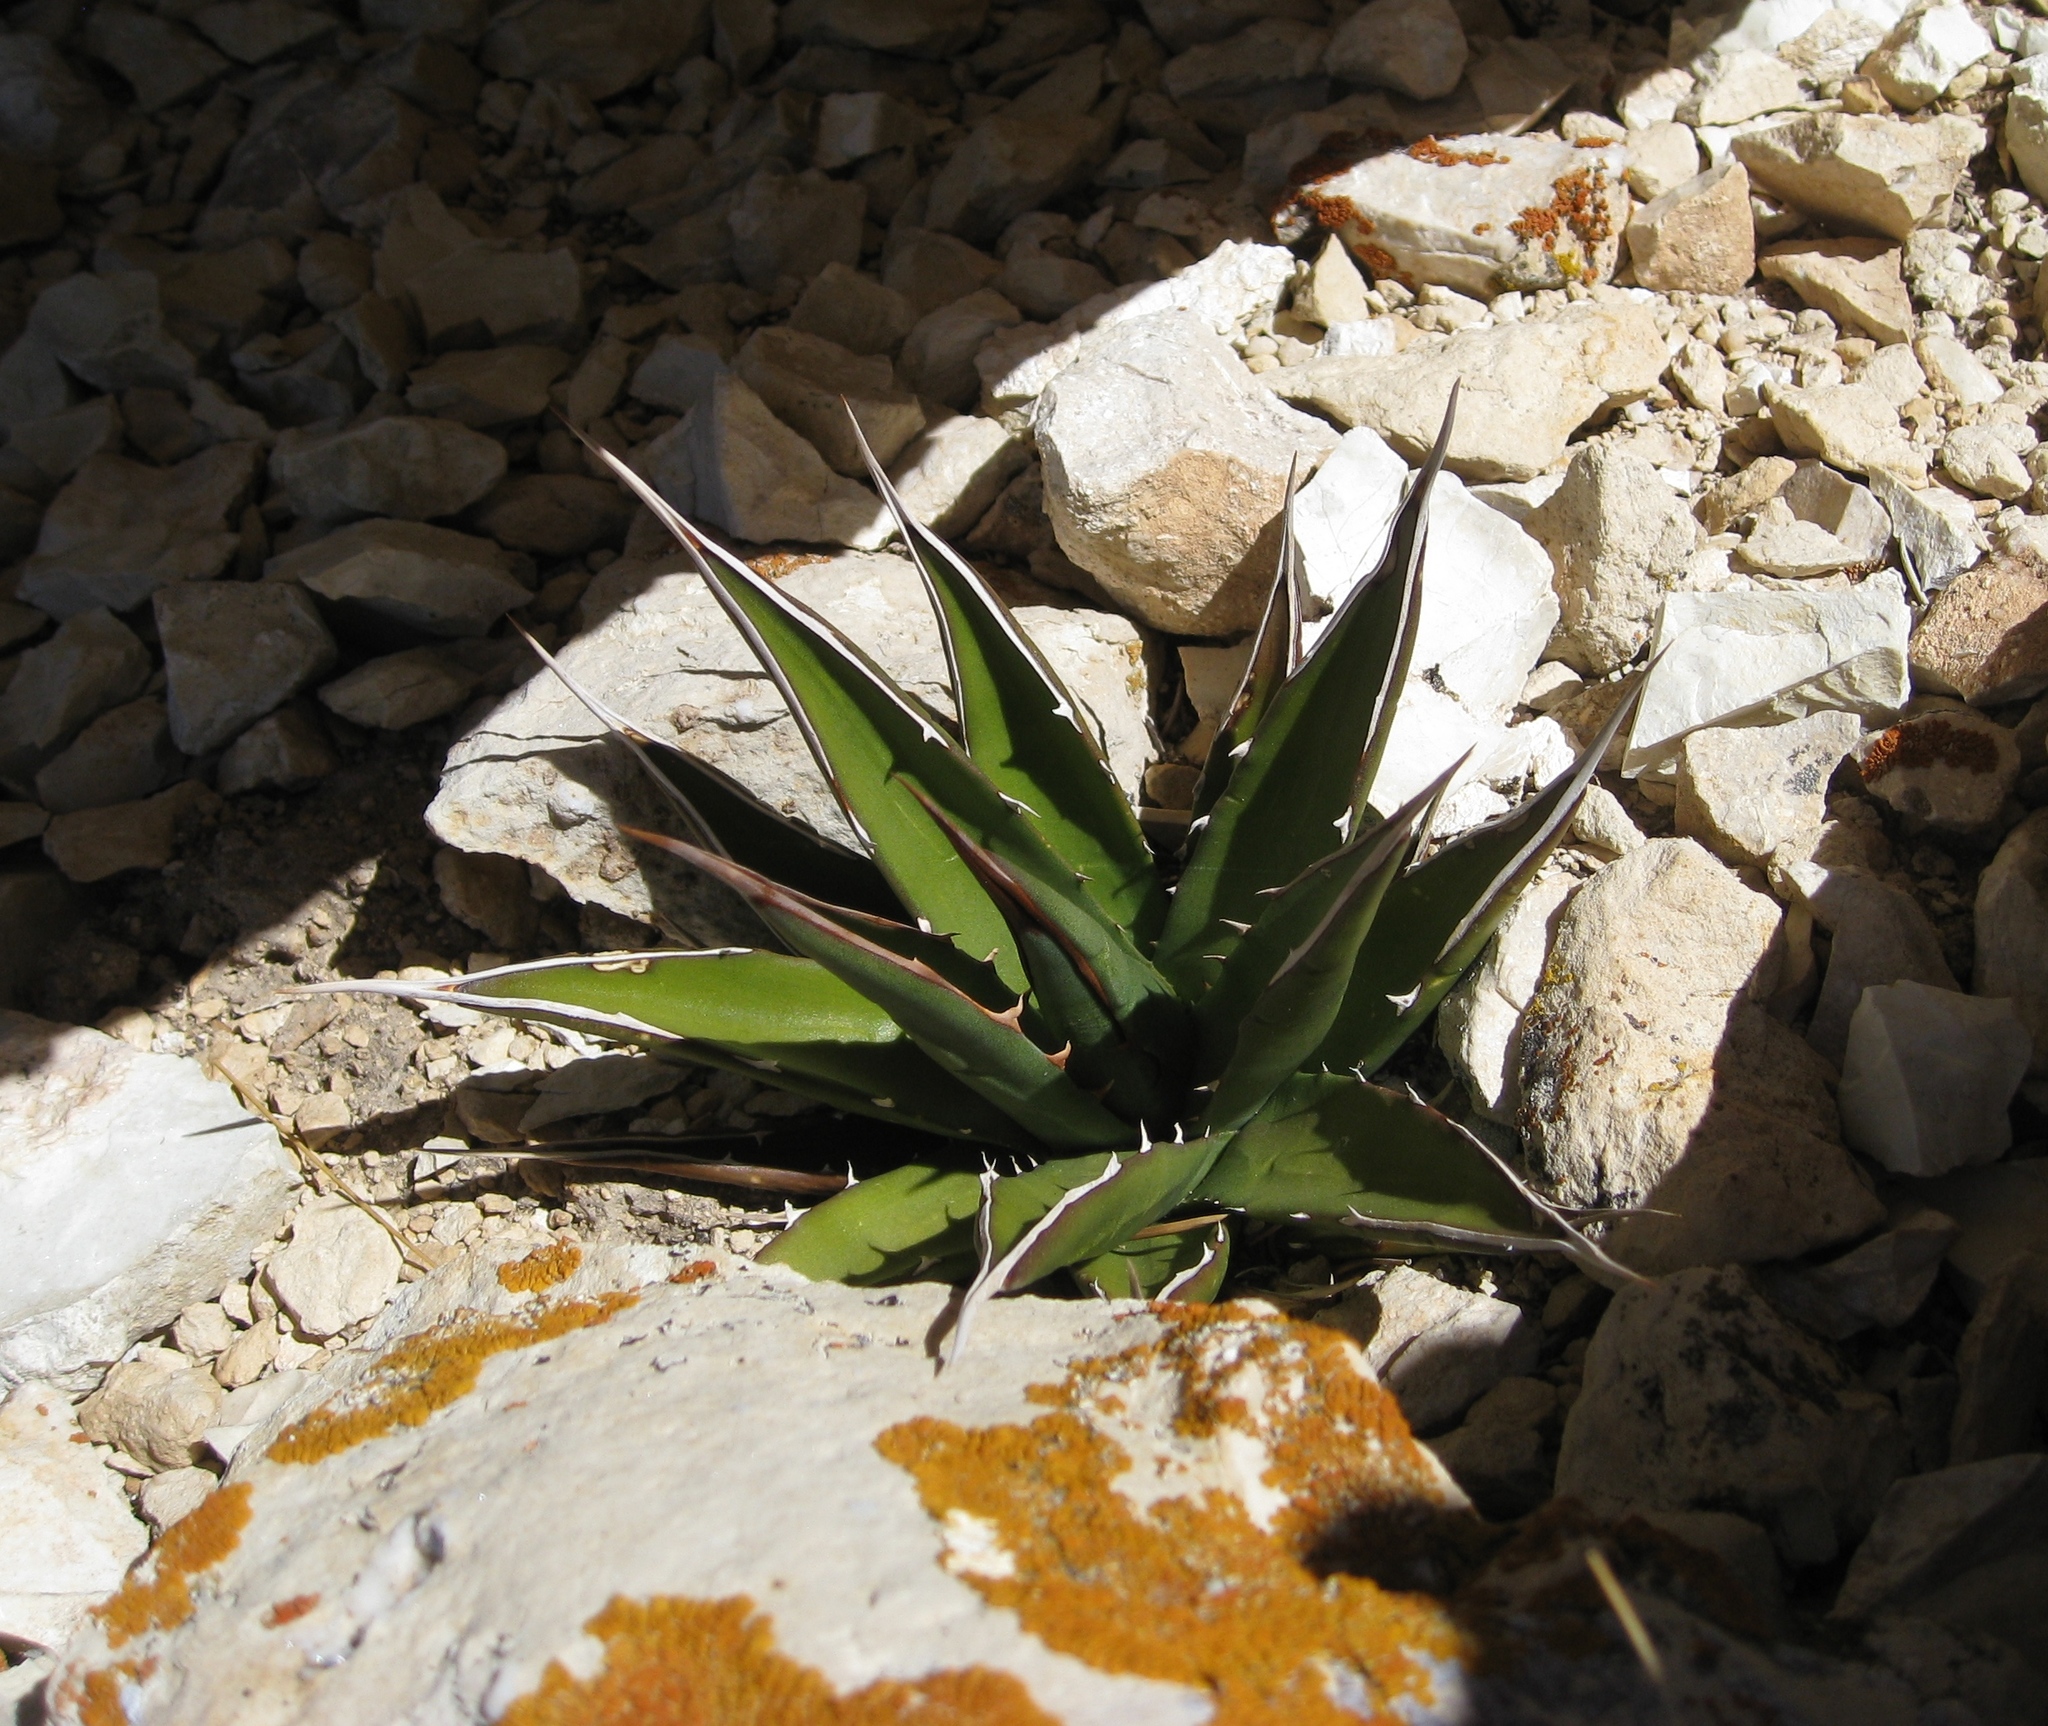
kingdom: Plantae
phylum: Tracheophyta
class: Liliopsida
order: Asparagales
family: Asparagaceae
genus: Agave
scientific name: Agave utahensis
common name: Utah agave
